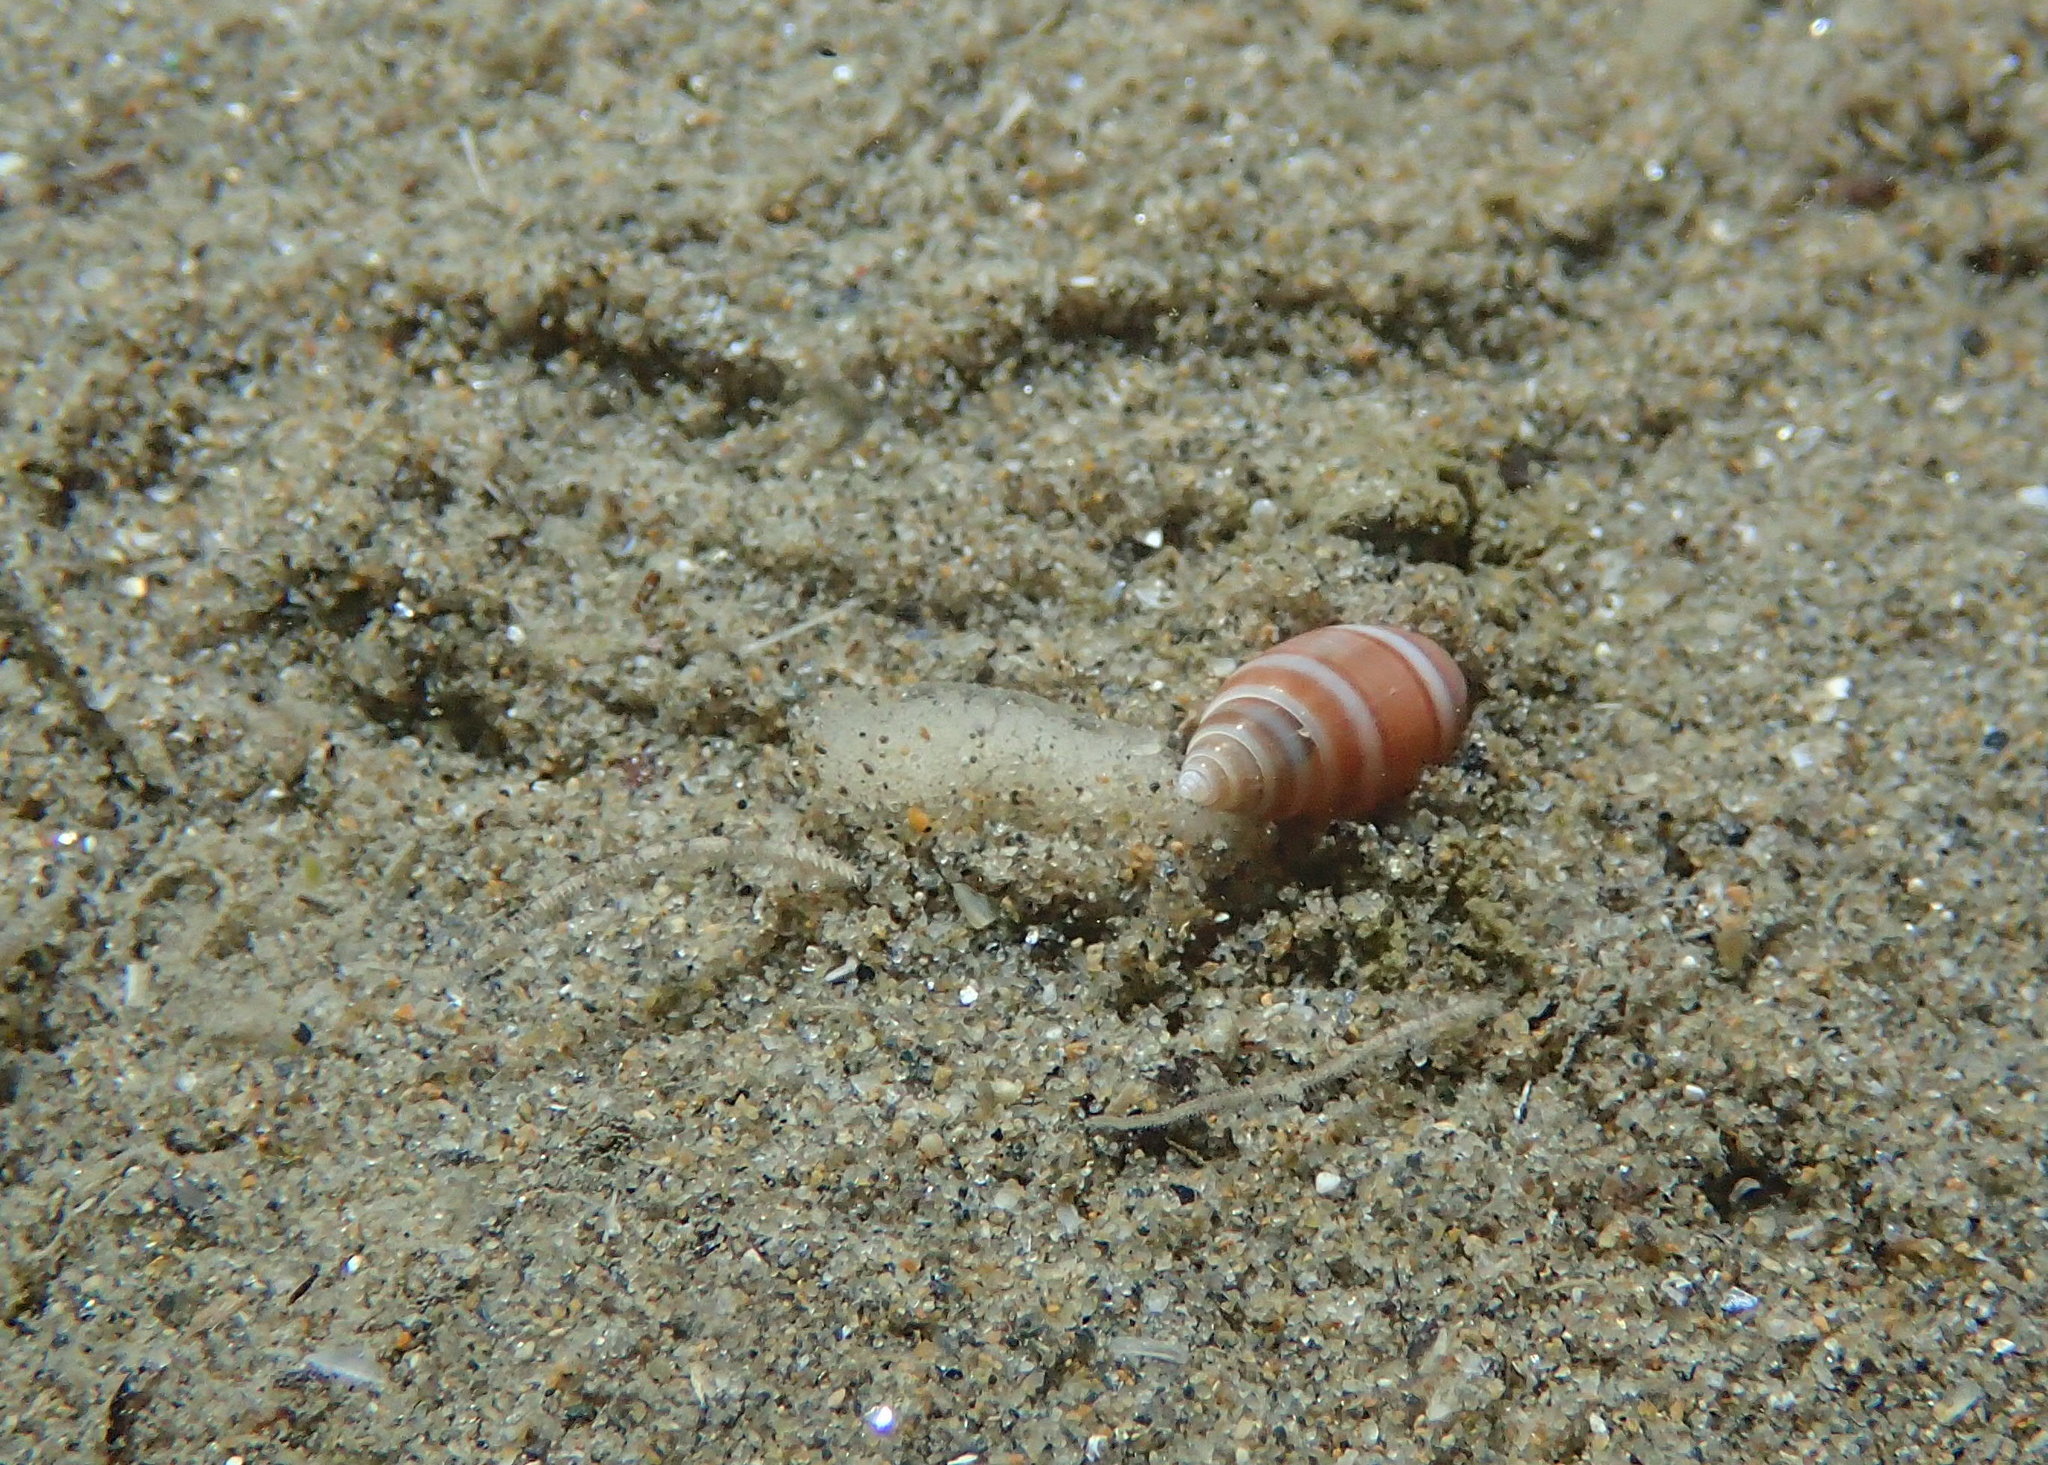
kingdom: Animalia
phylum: Mollusca
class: Gastropoda
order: Cephalaspidea
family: Acteonidae
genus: Acteon
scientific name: Acteon tornatilis
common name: European acteon
